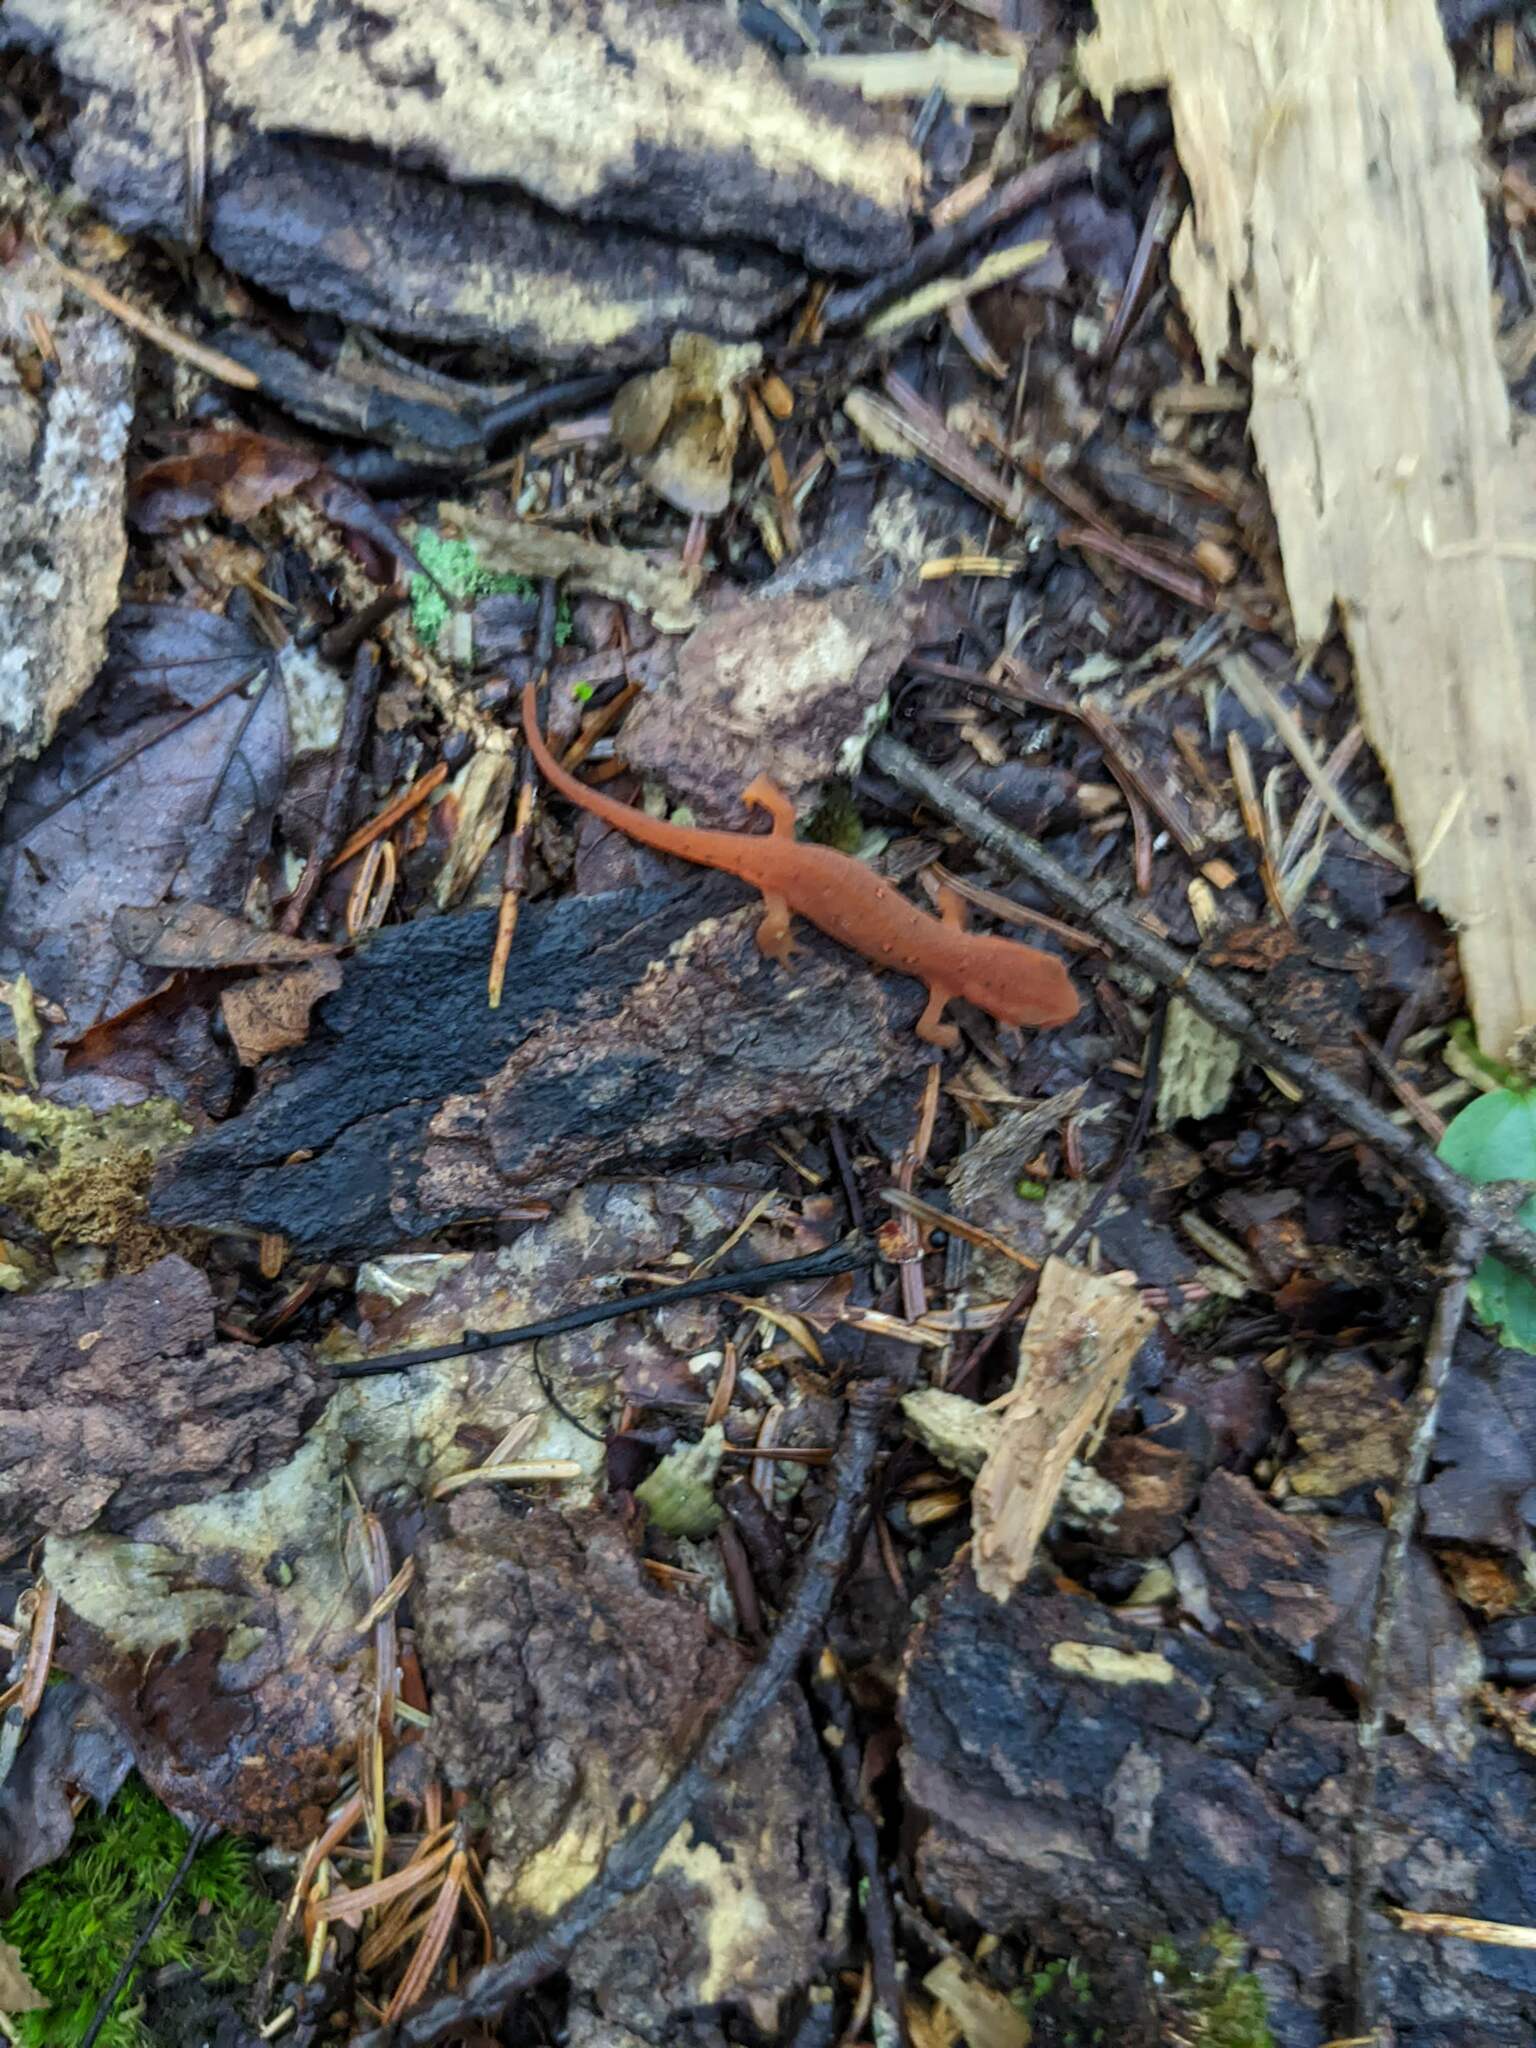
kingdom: Animalia
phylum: Chordata
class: Amphibia
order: Caudata
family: Salamandridae
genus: Notophthalmus
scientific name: Notophthalmus viridescens
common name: Eastern newt
